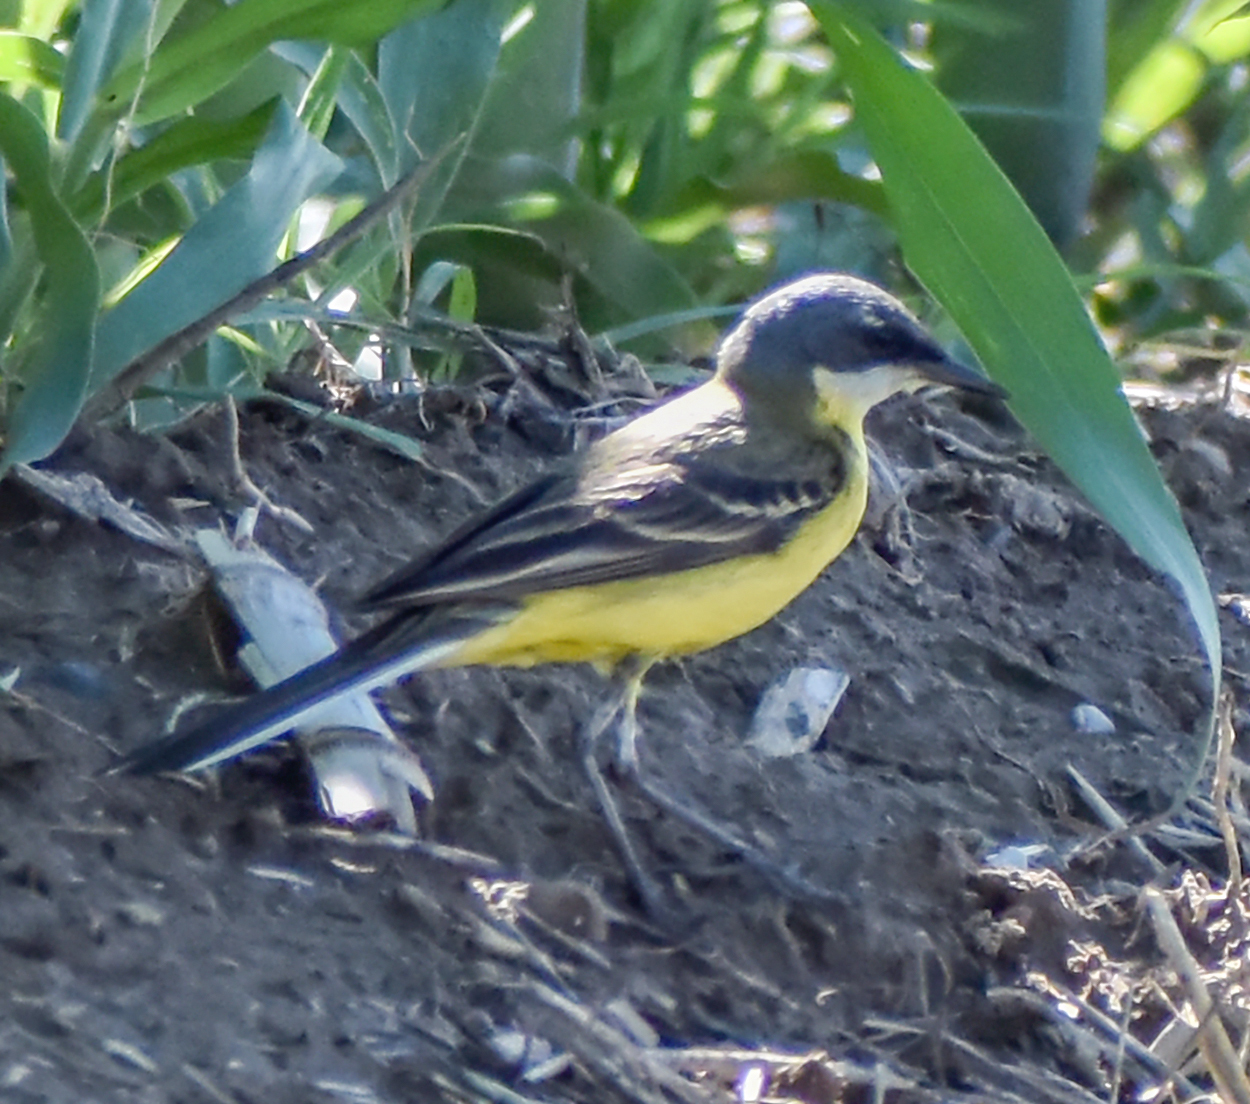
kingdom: Animalia
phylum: Chordata
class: Aves
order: Passeriformes
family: Motacillidae
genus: Motacilla
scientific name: Motacilla flava
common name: Western yellow wagtail
